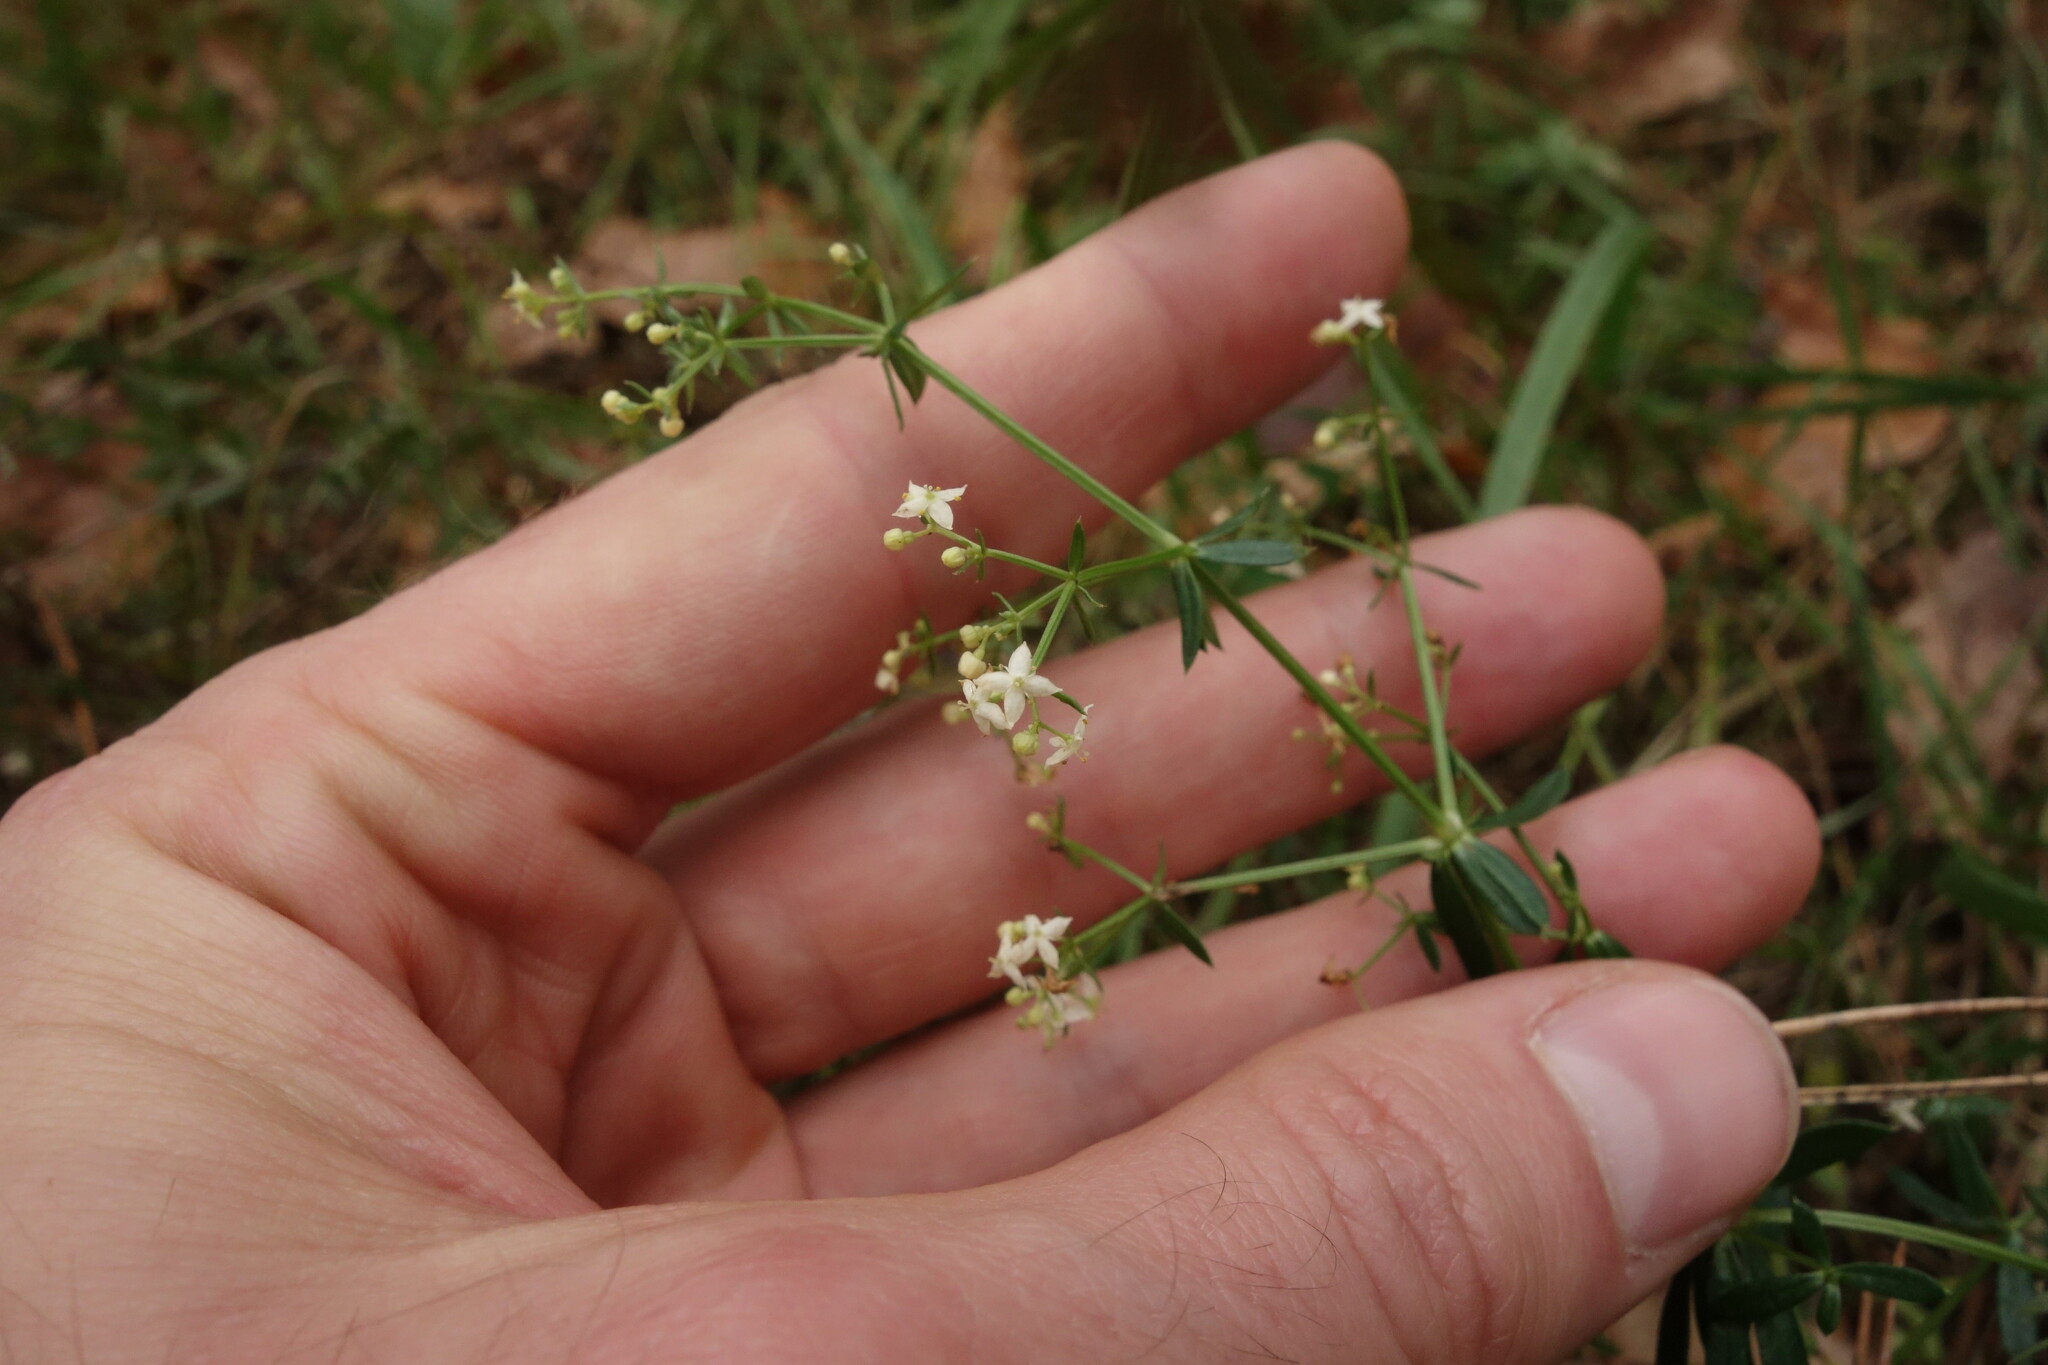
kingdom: Plantae
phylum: Tracheophyta
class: Magnoliopsida
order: Gentianales
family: Rubiaceae
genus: Galium
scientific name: Galium mollugo
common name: Hedge bedstraw
